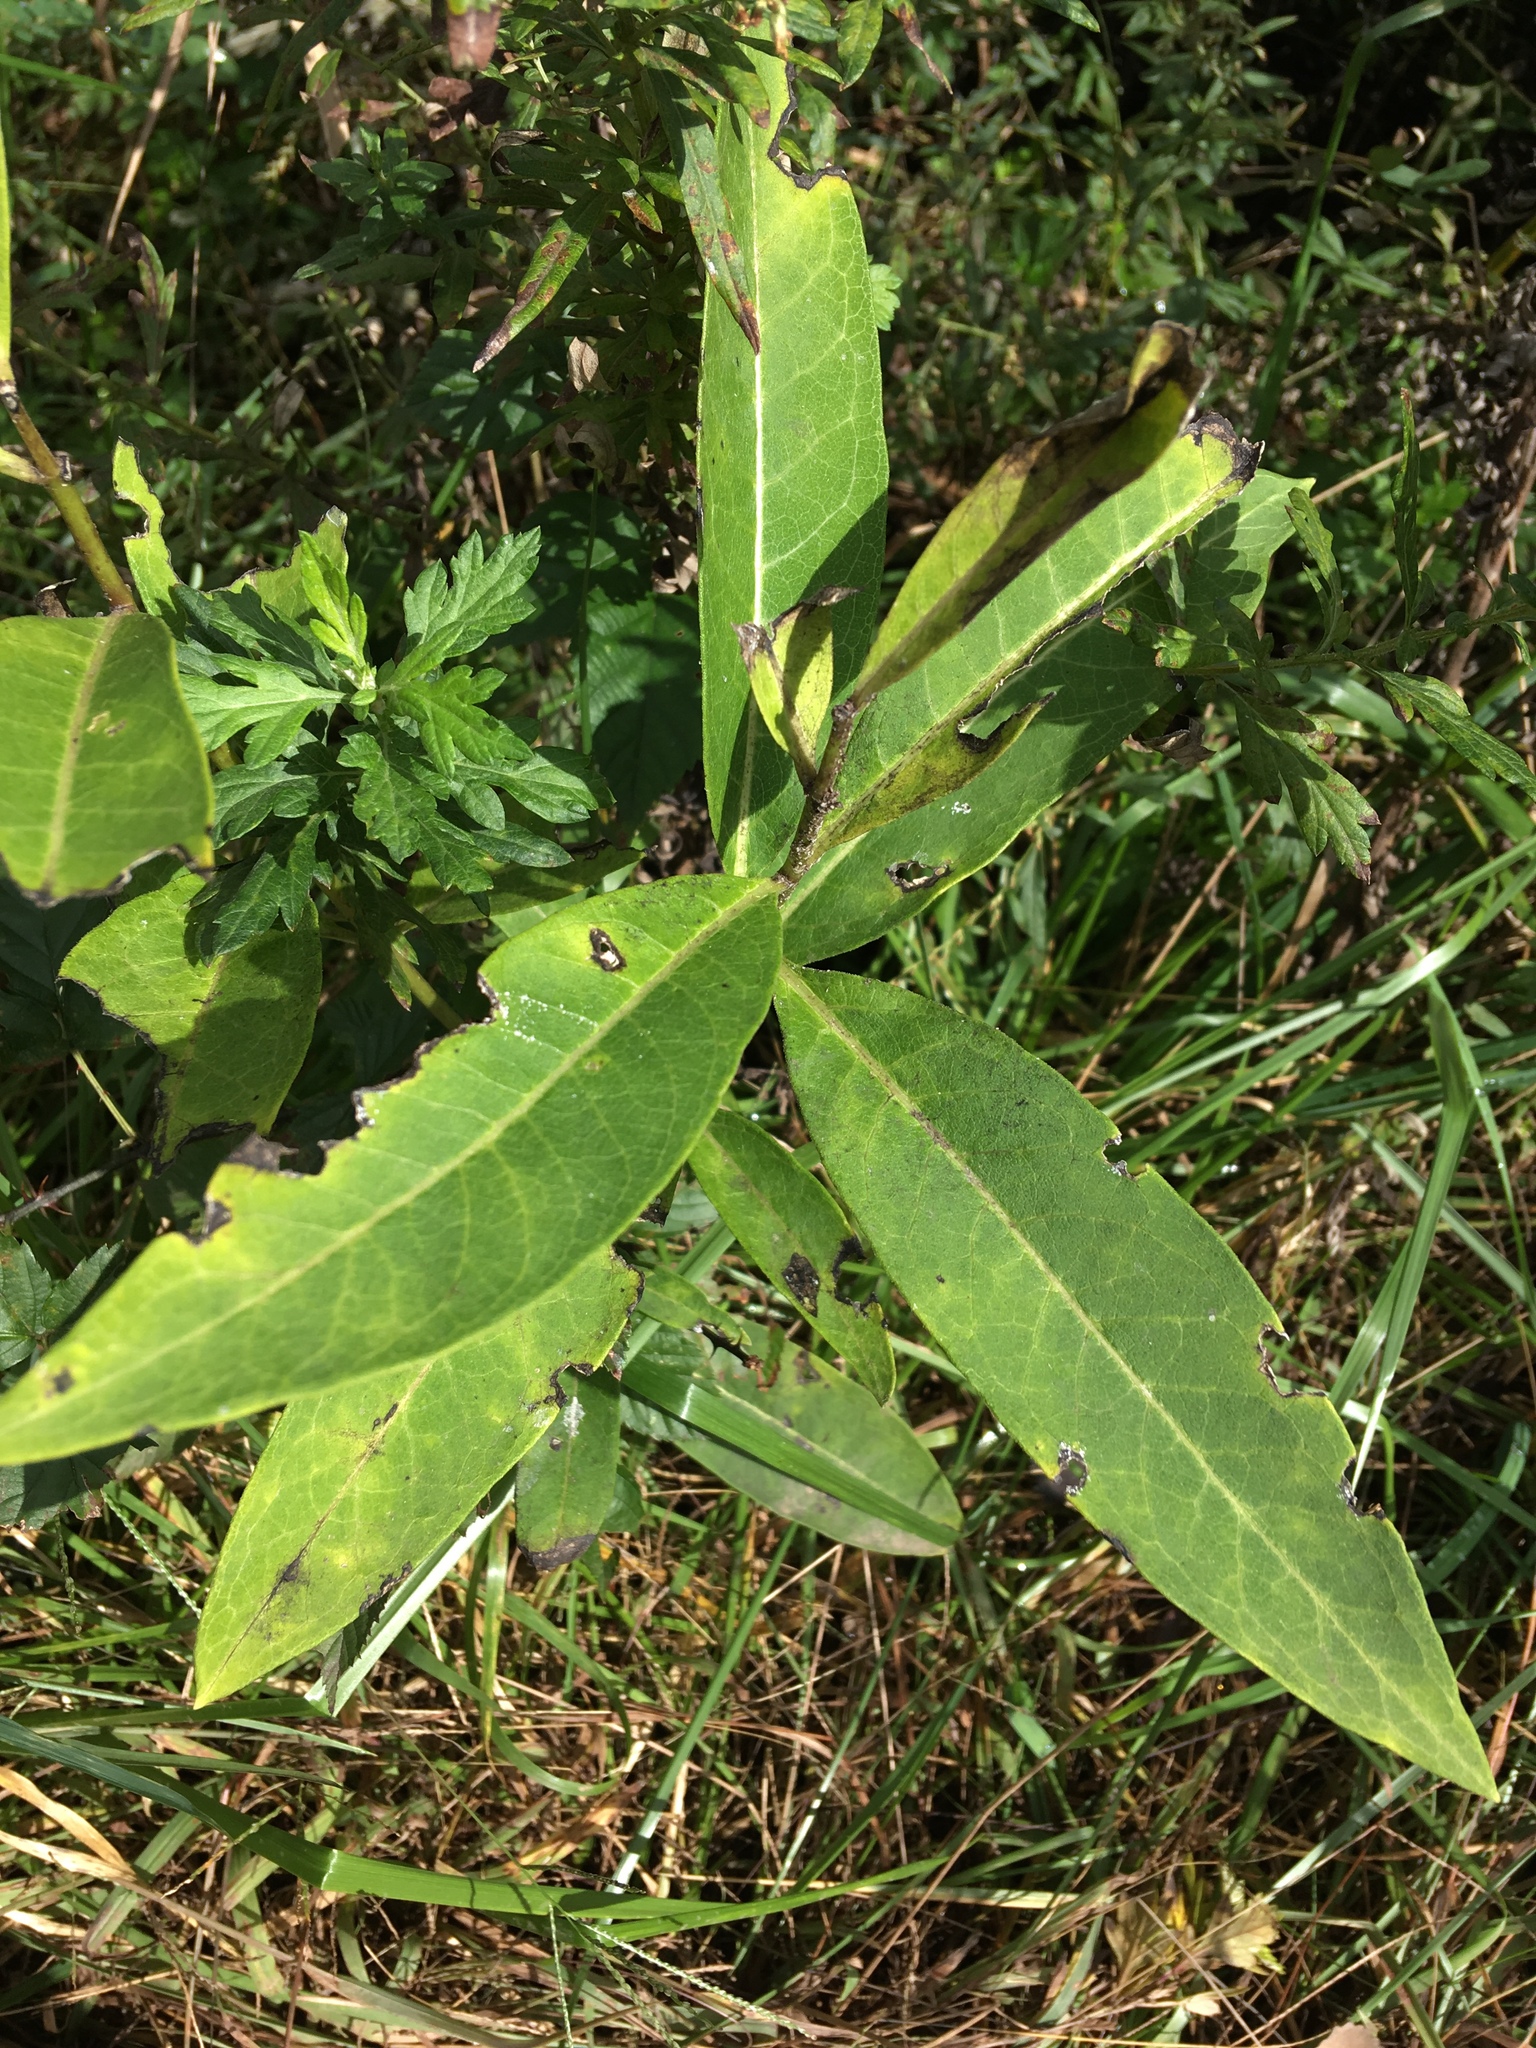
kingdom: Plantae
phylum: Tracheophyta
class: Magnoliopsida
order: Gentianales
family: Apocynaceae
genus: Asclepias
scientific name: Asclepias syriaca
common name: Common milkweed
